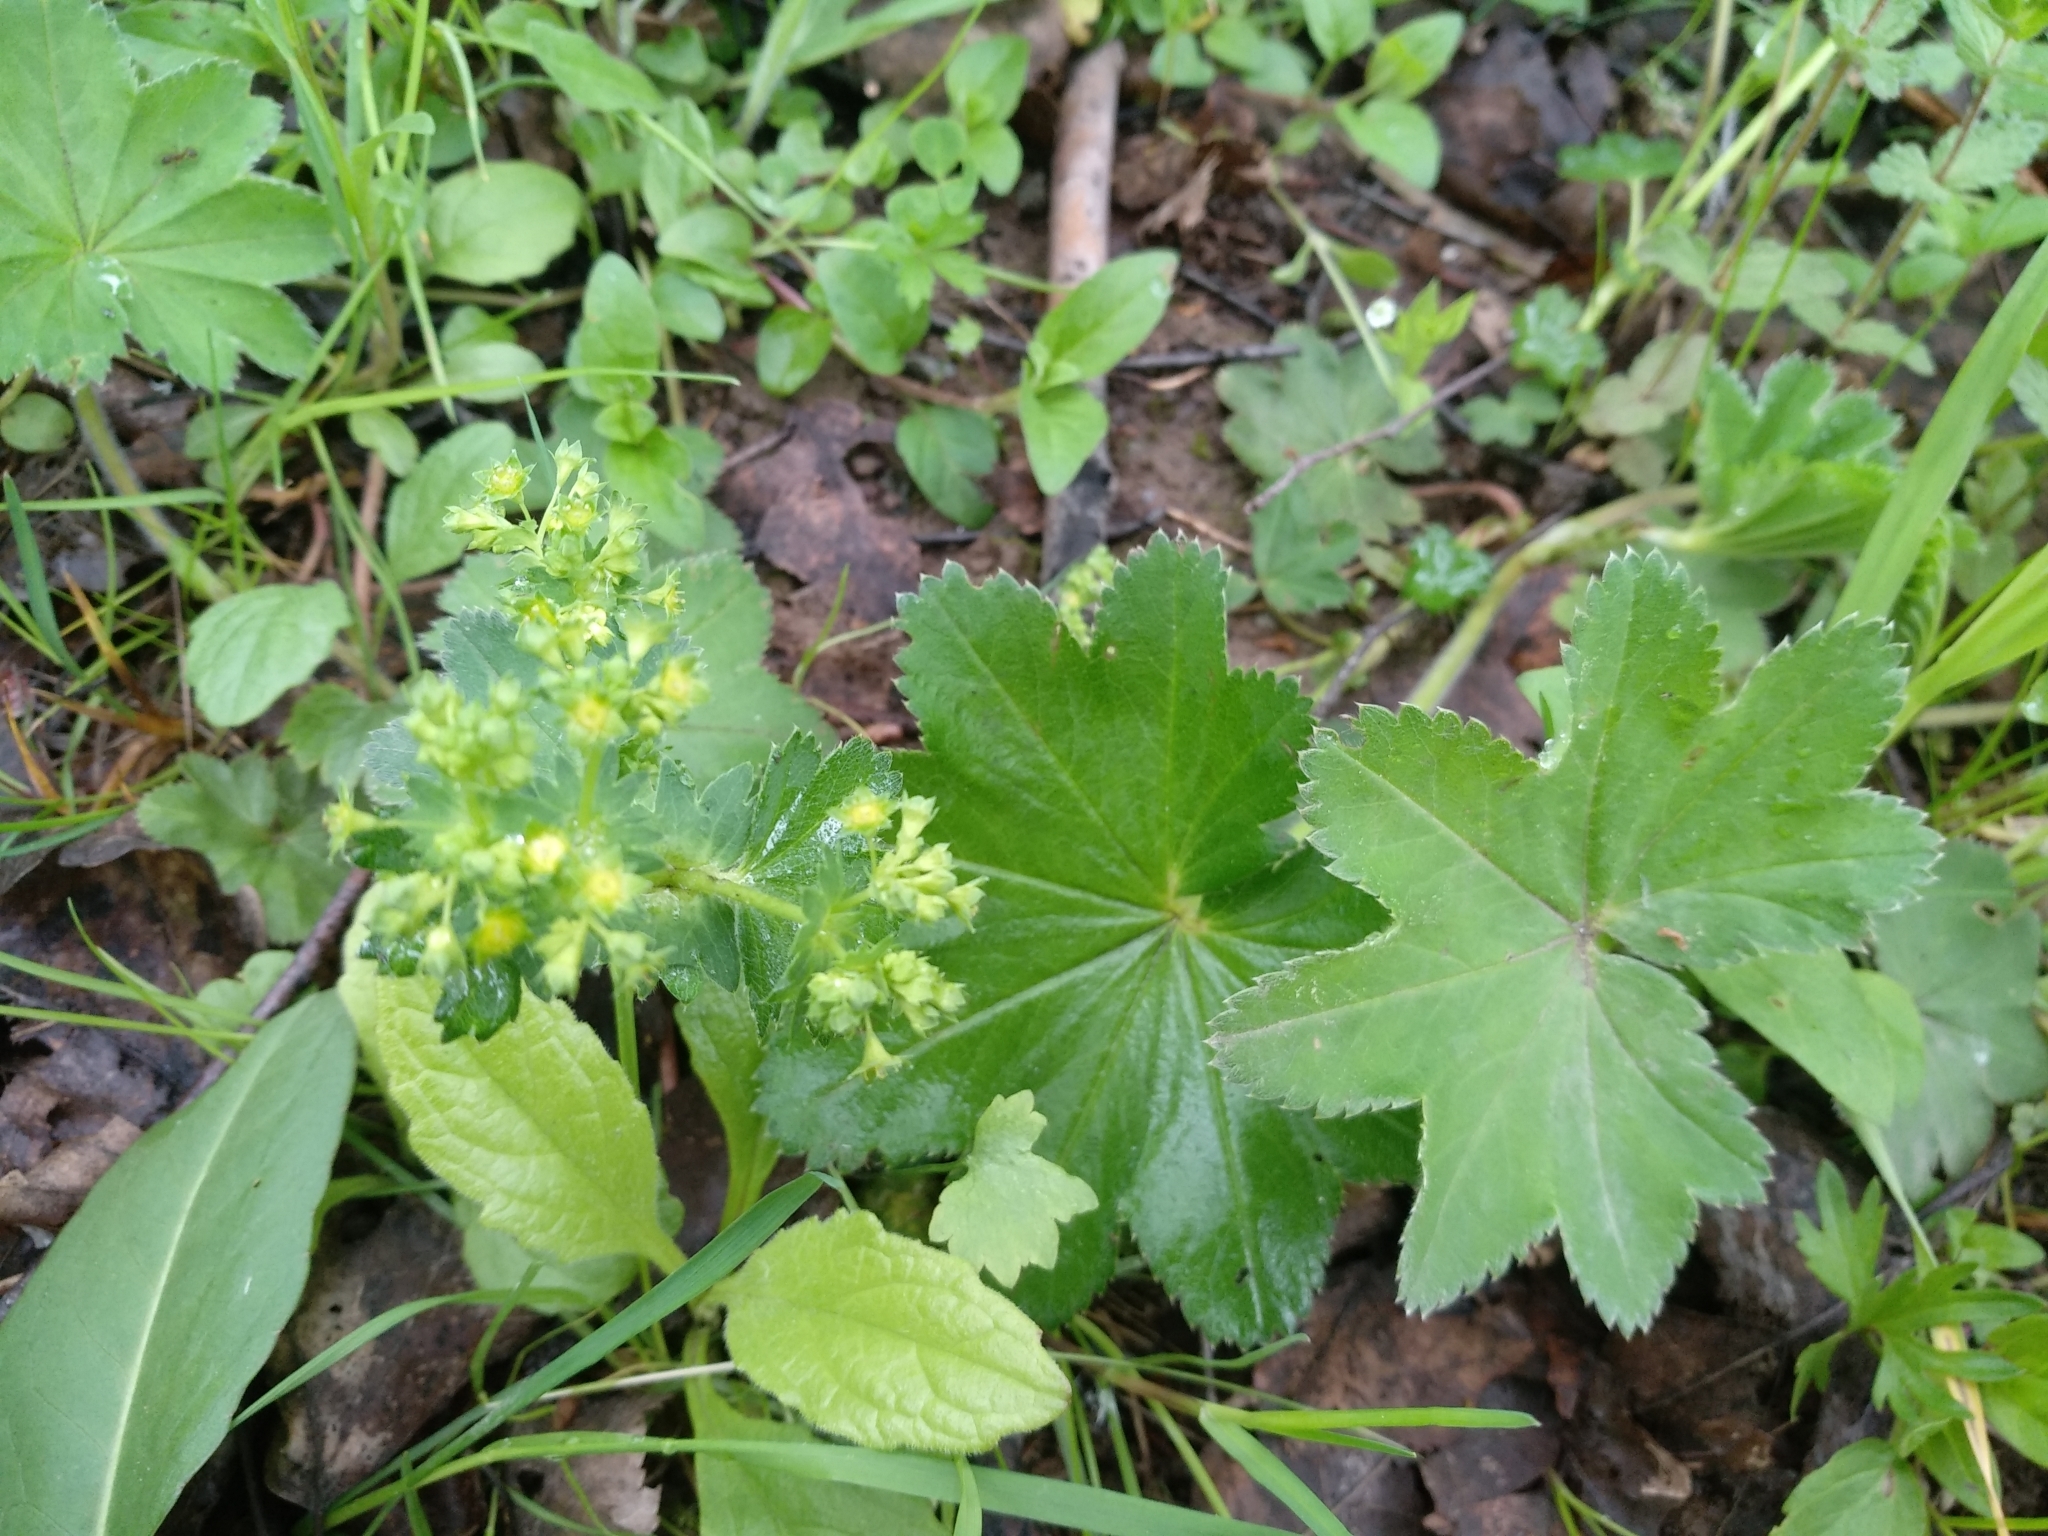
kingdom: Plantae
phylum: Tracheophyta
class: Magnoliopsida
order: Rosales
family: Rosaceae
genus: Alchemilla
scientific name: Alchemilla
